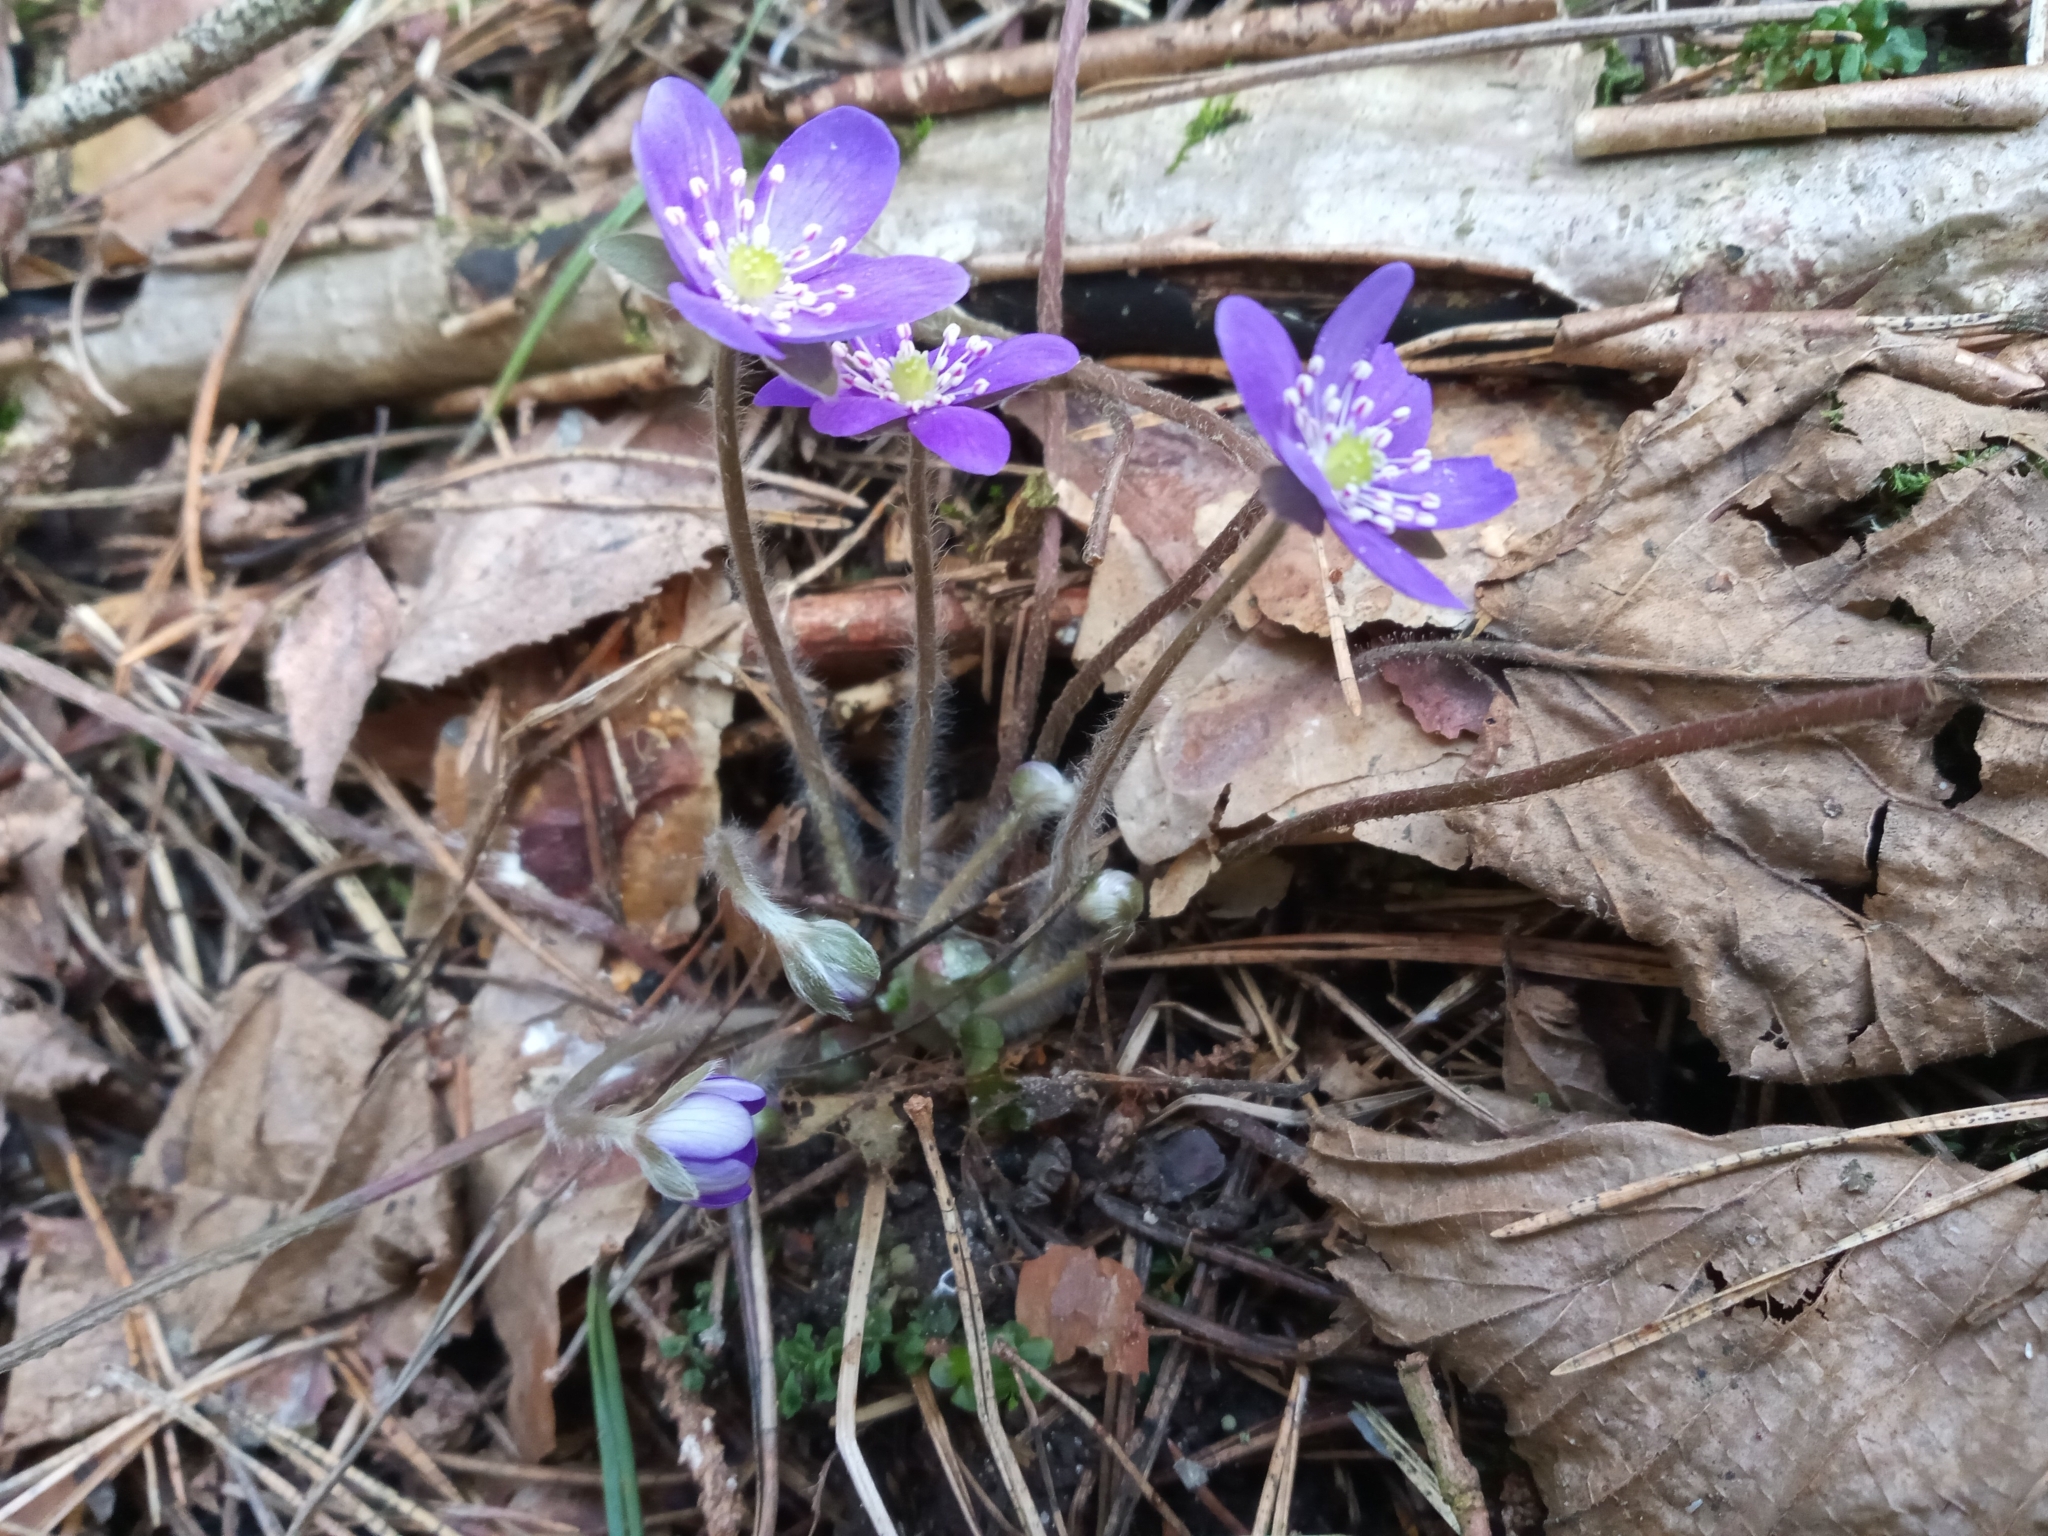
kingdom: Plantae
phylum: Tracheophyta
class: Magnoliopsida
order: Ranunculales
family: Ranunculaceae
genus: Hepatica
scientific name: Hepatica nobilis
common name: Liverleaf
